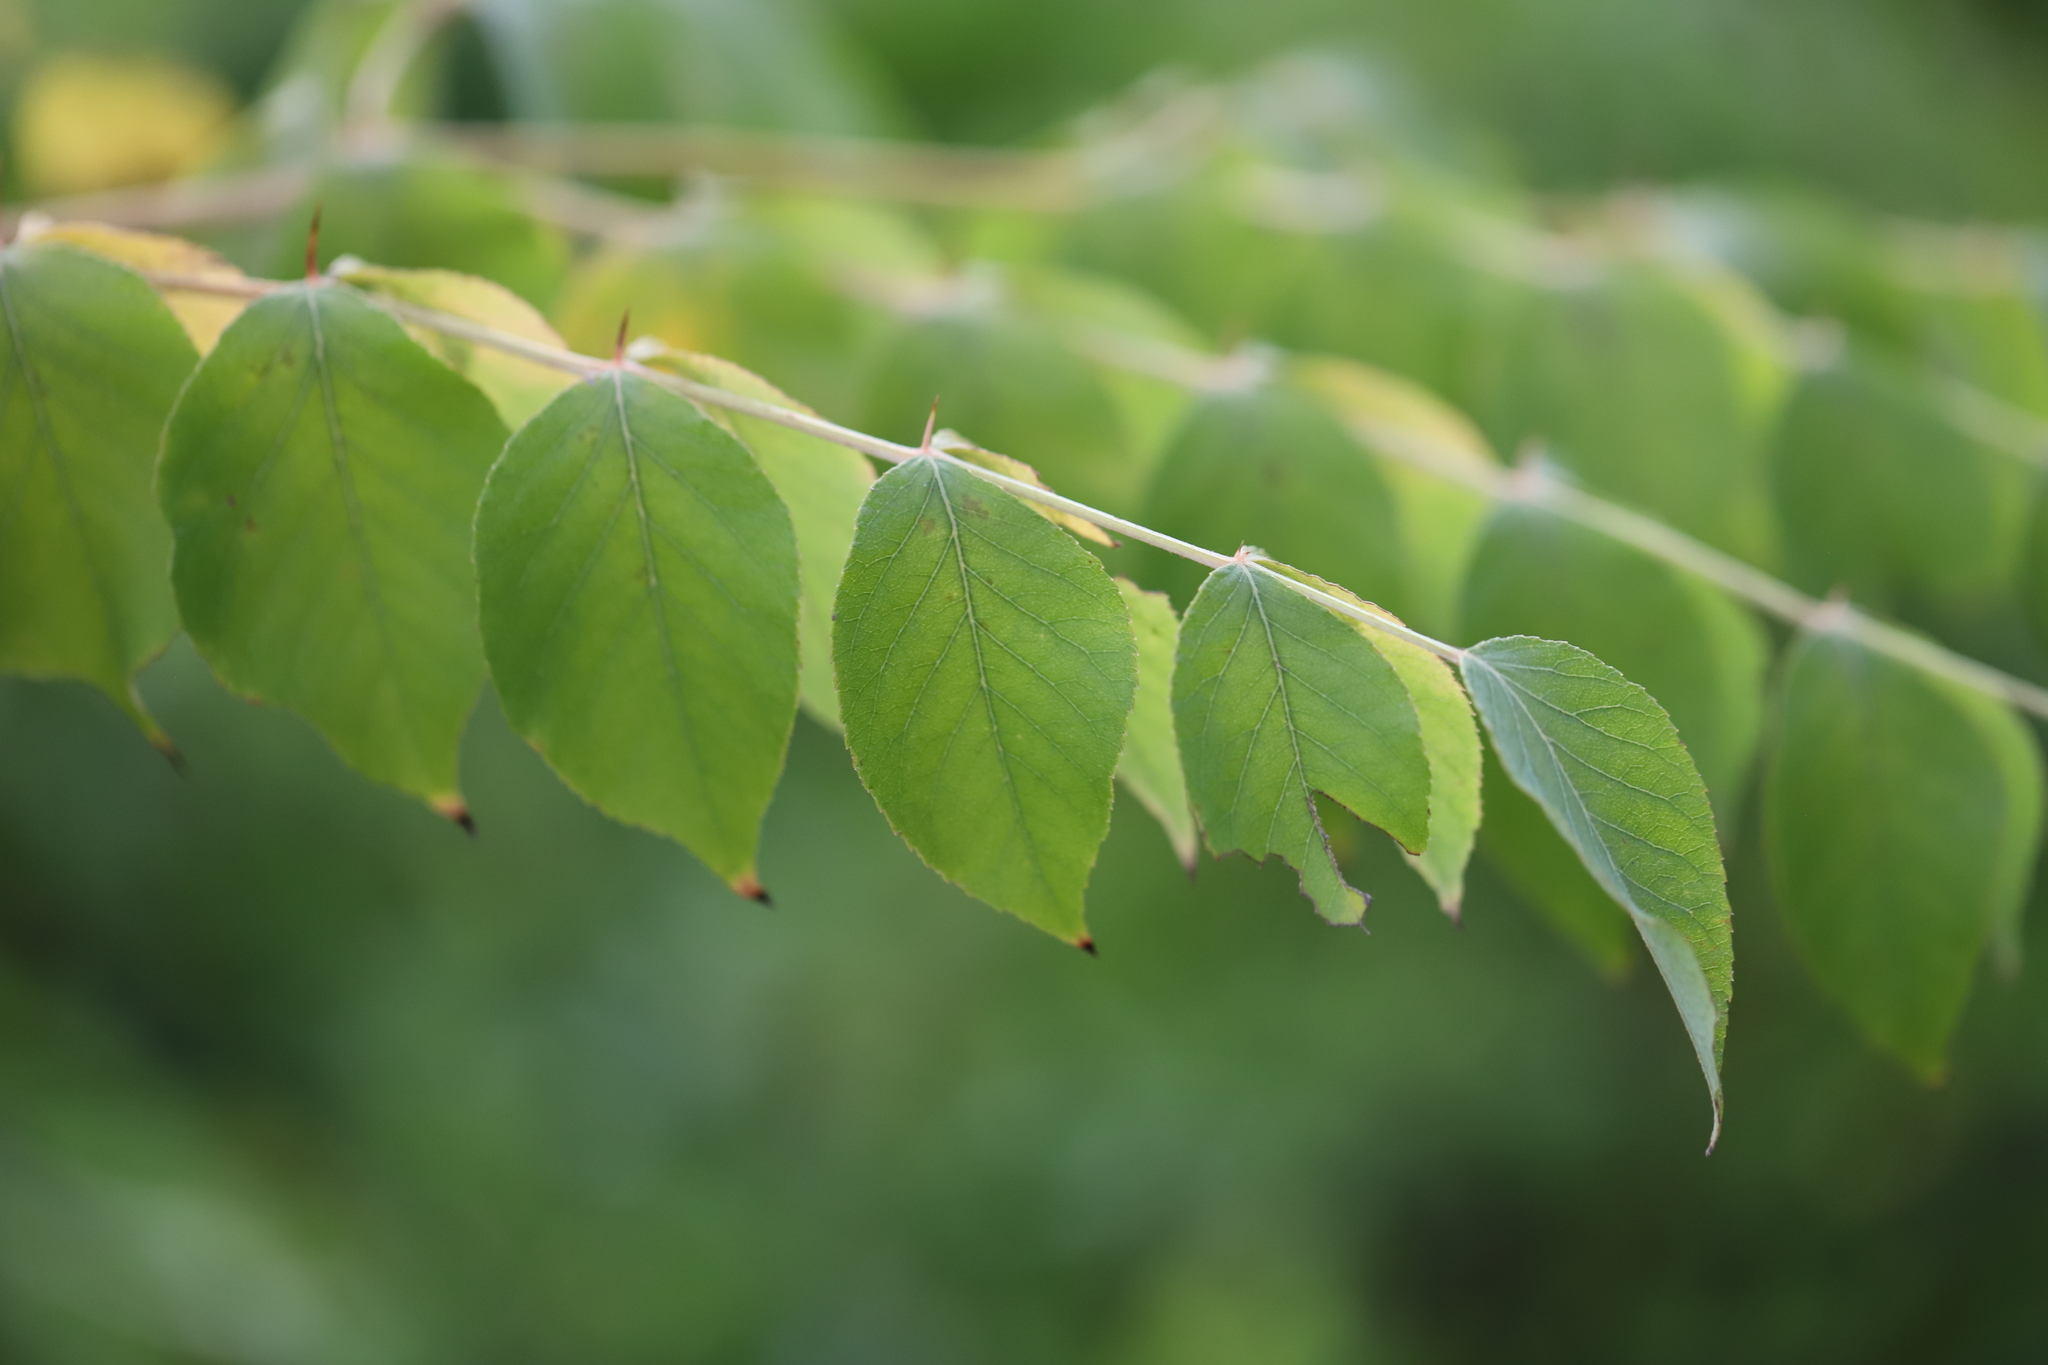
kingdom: Plantae
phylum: Tracheophyta
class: Magnoliopsida
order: Apiales
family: Araliaceae
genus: Aralia
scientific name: Aralia elata
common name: Japanese angelica-tree
